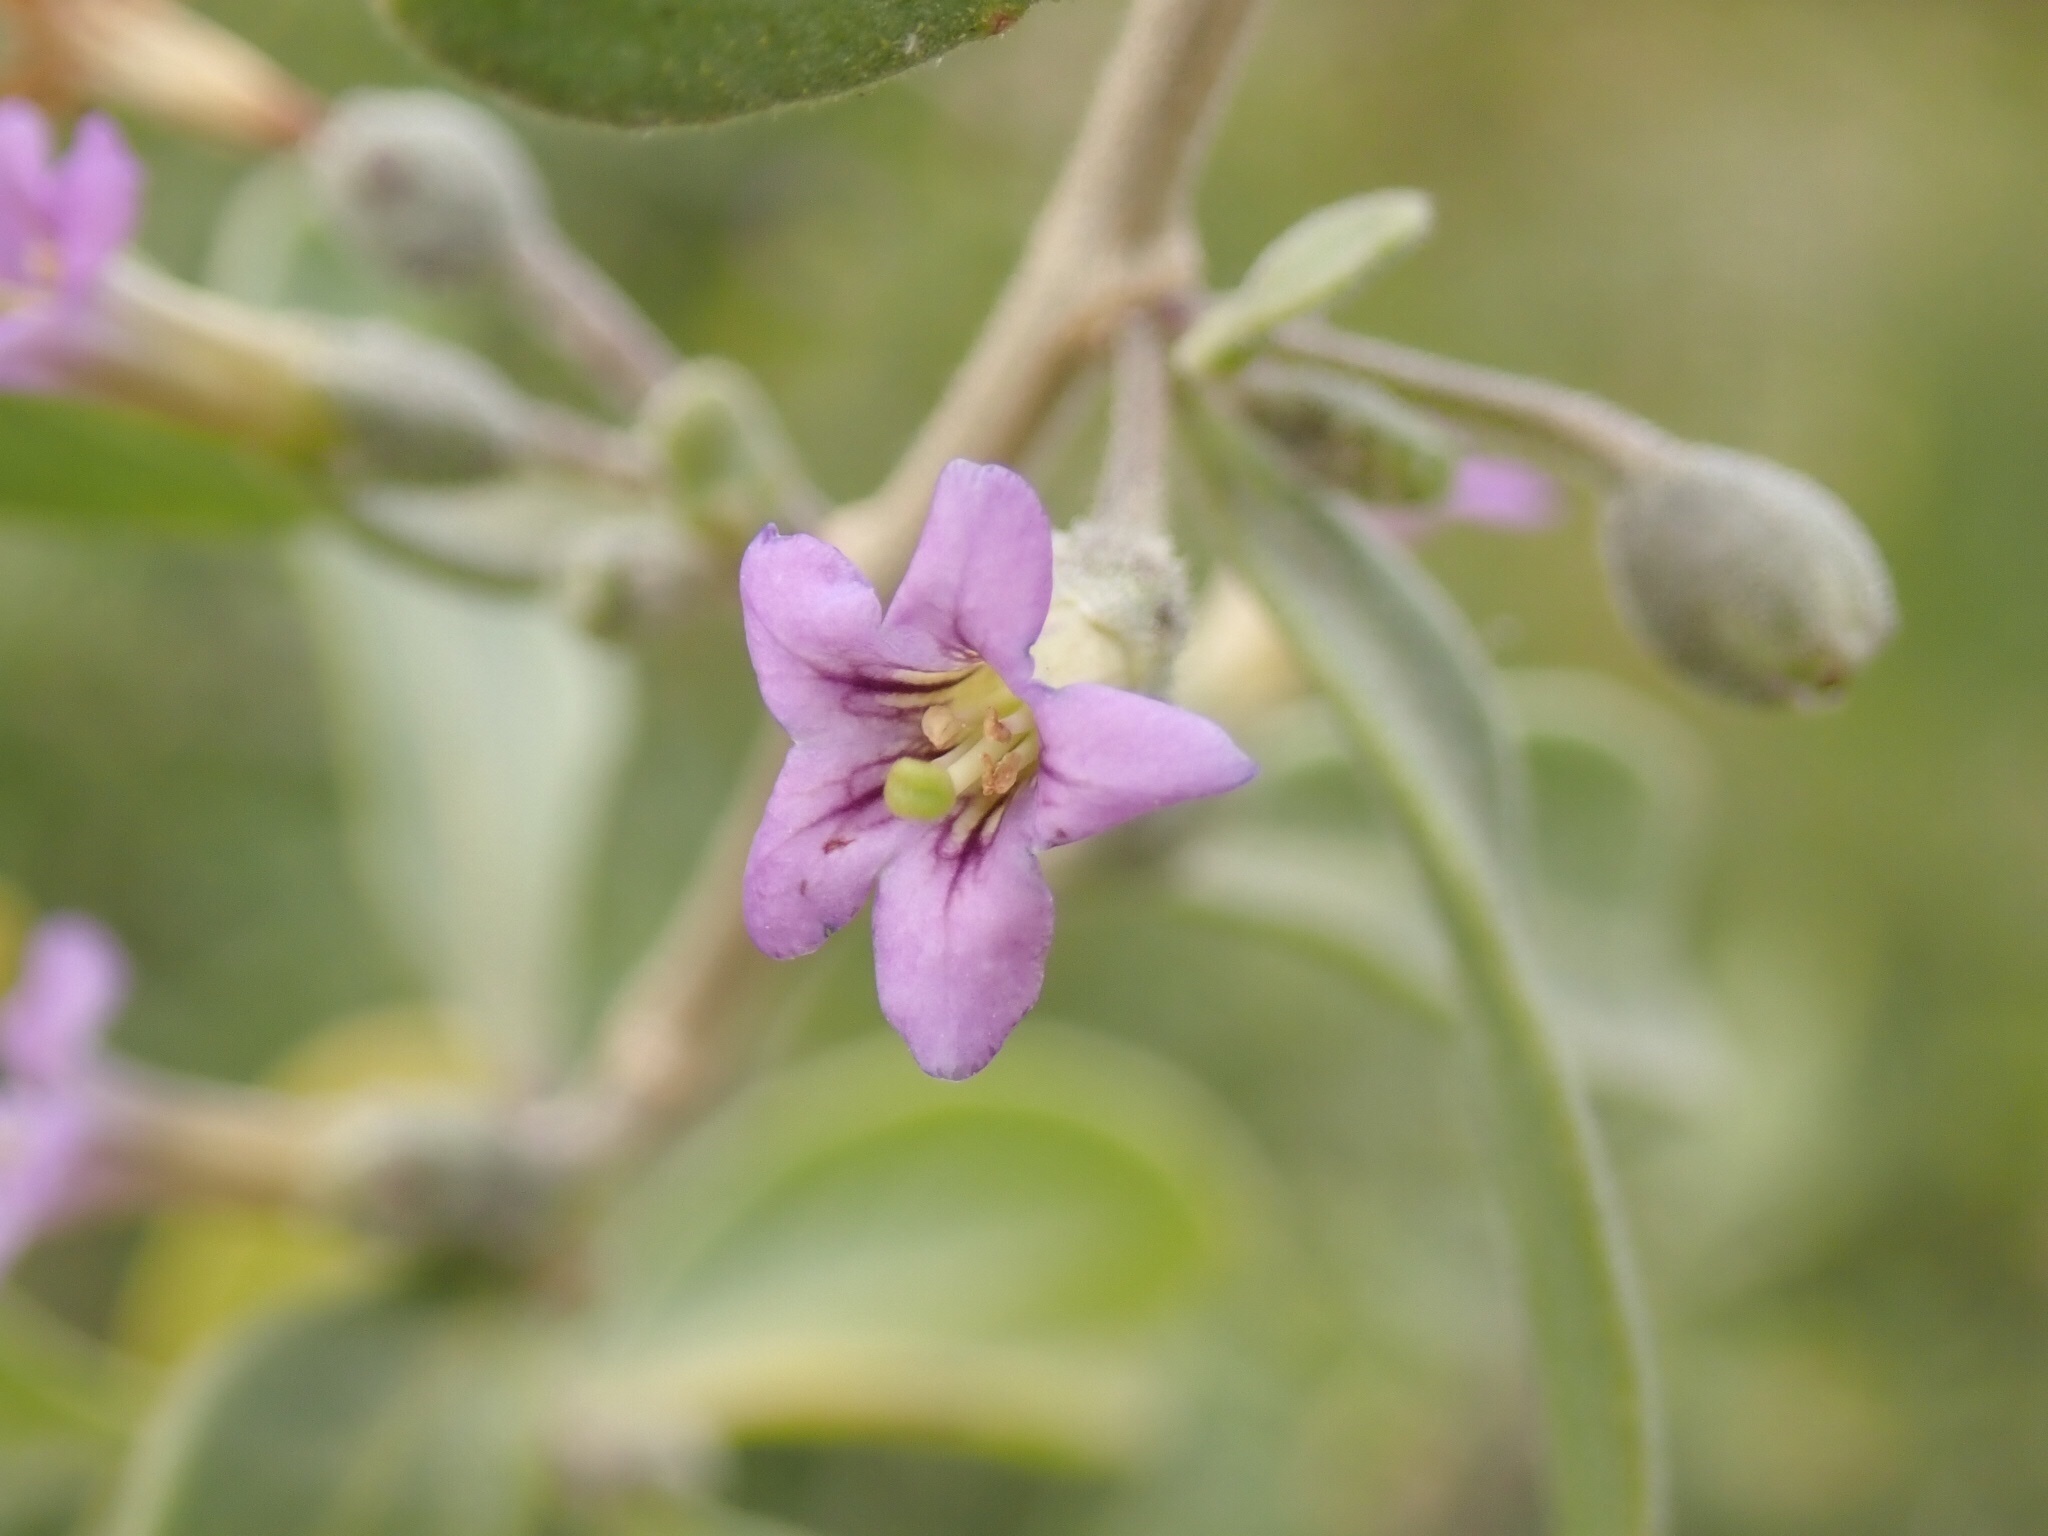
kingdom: Plantae
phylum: Tracheophyta
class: Magnoliopsida
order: Solanales
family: Solanaceae
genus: Lycium
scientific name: Lycium fremontii
